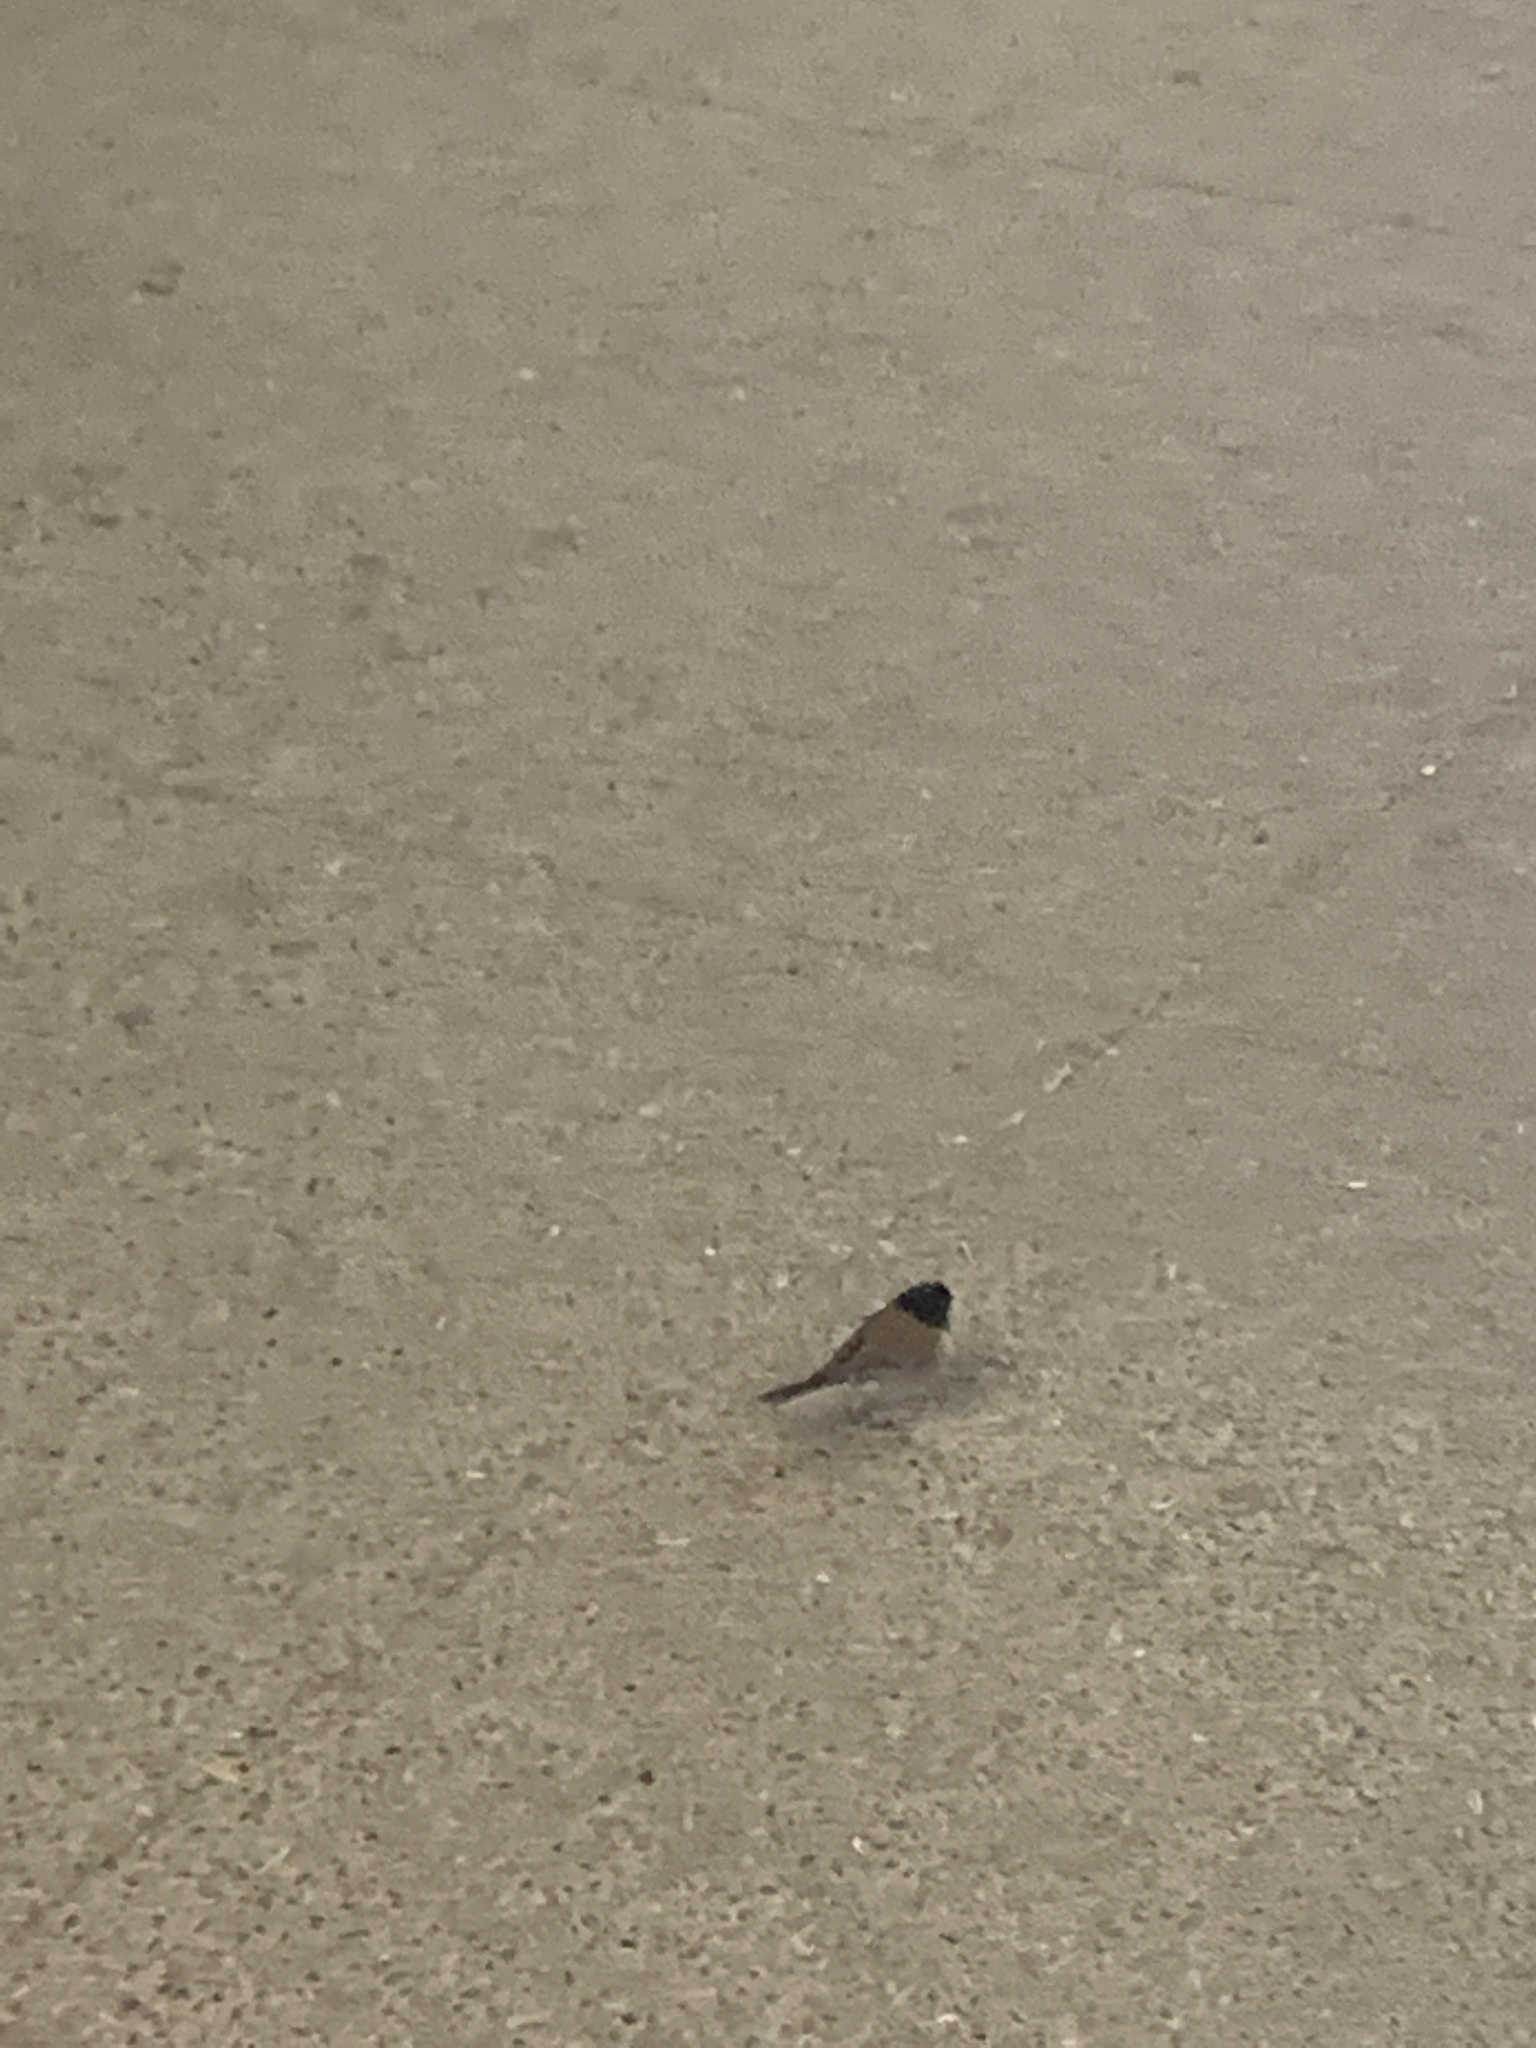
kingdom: Animalia
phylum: Chordata
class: Aves
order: Passeriformes
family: Passerellidae
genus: Junco
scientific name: Junco hyemalis
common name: Dark-eyed junco
